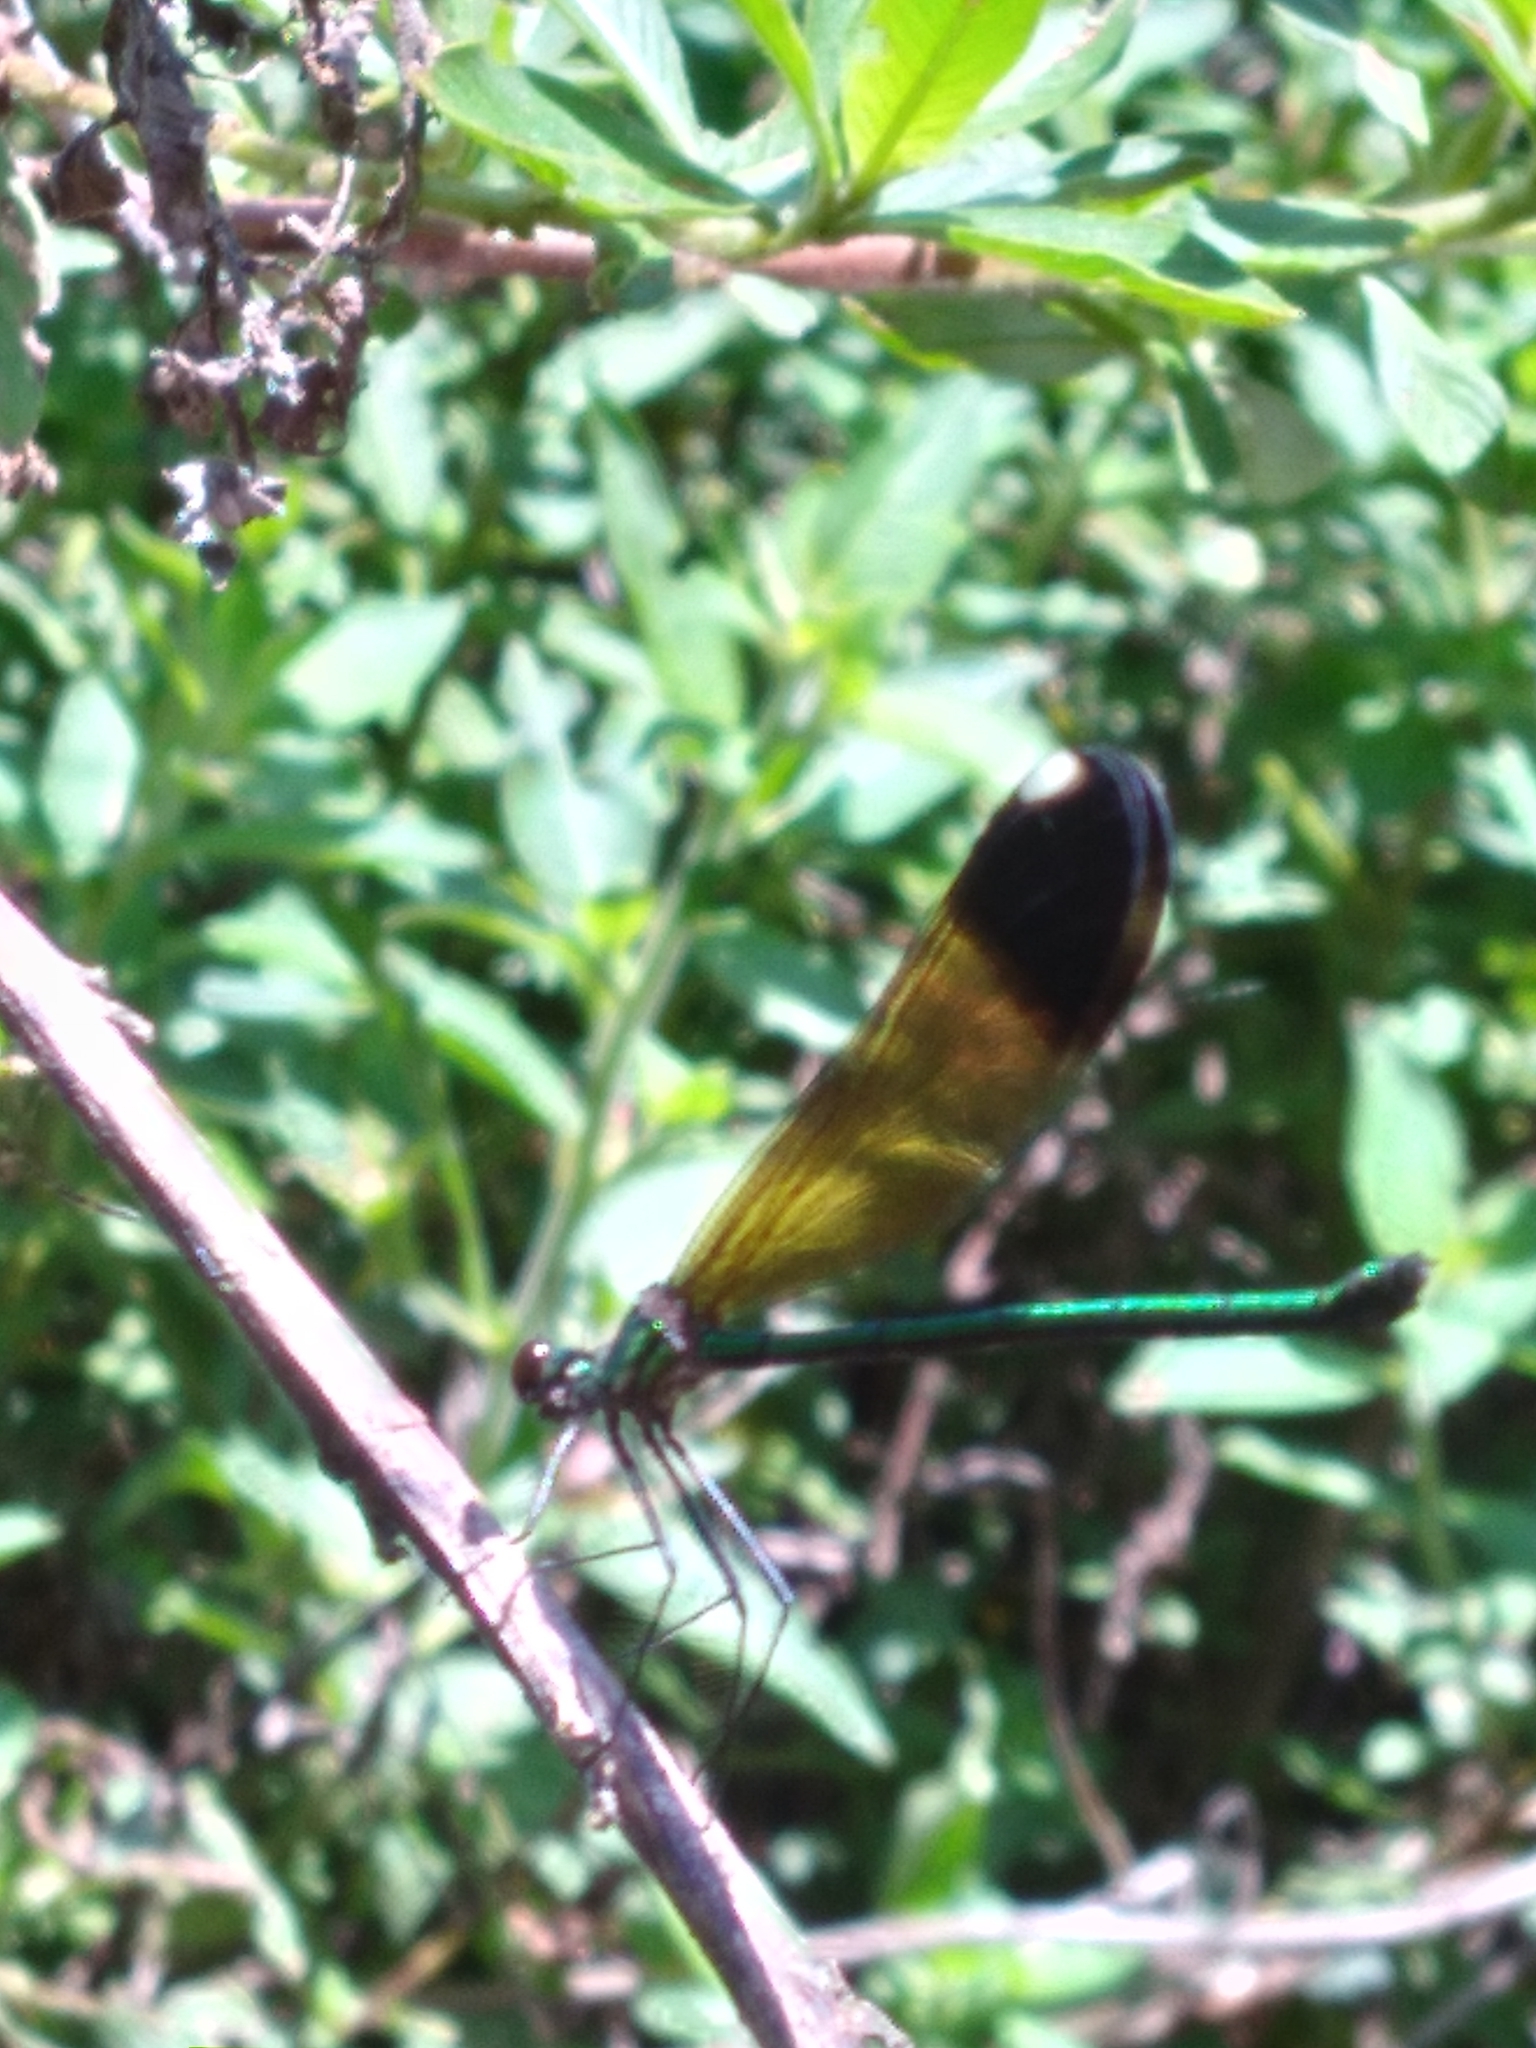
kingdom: Animalia
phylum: Arthropoda
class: Insecta
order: Odonata
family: Calopterygidae
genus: Calopteryx
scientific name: Calopteryx dimidiata
